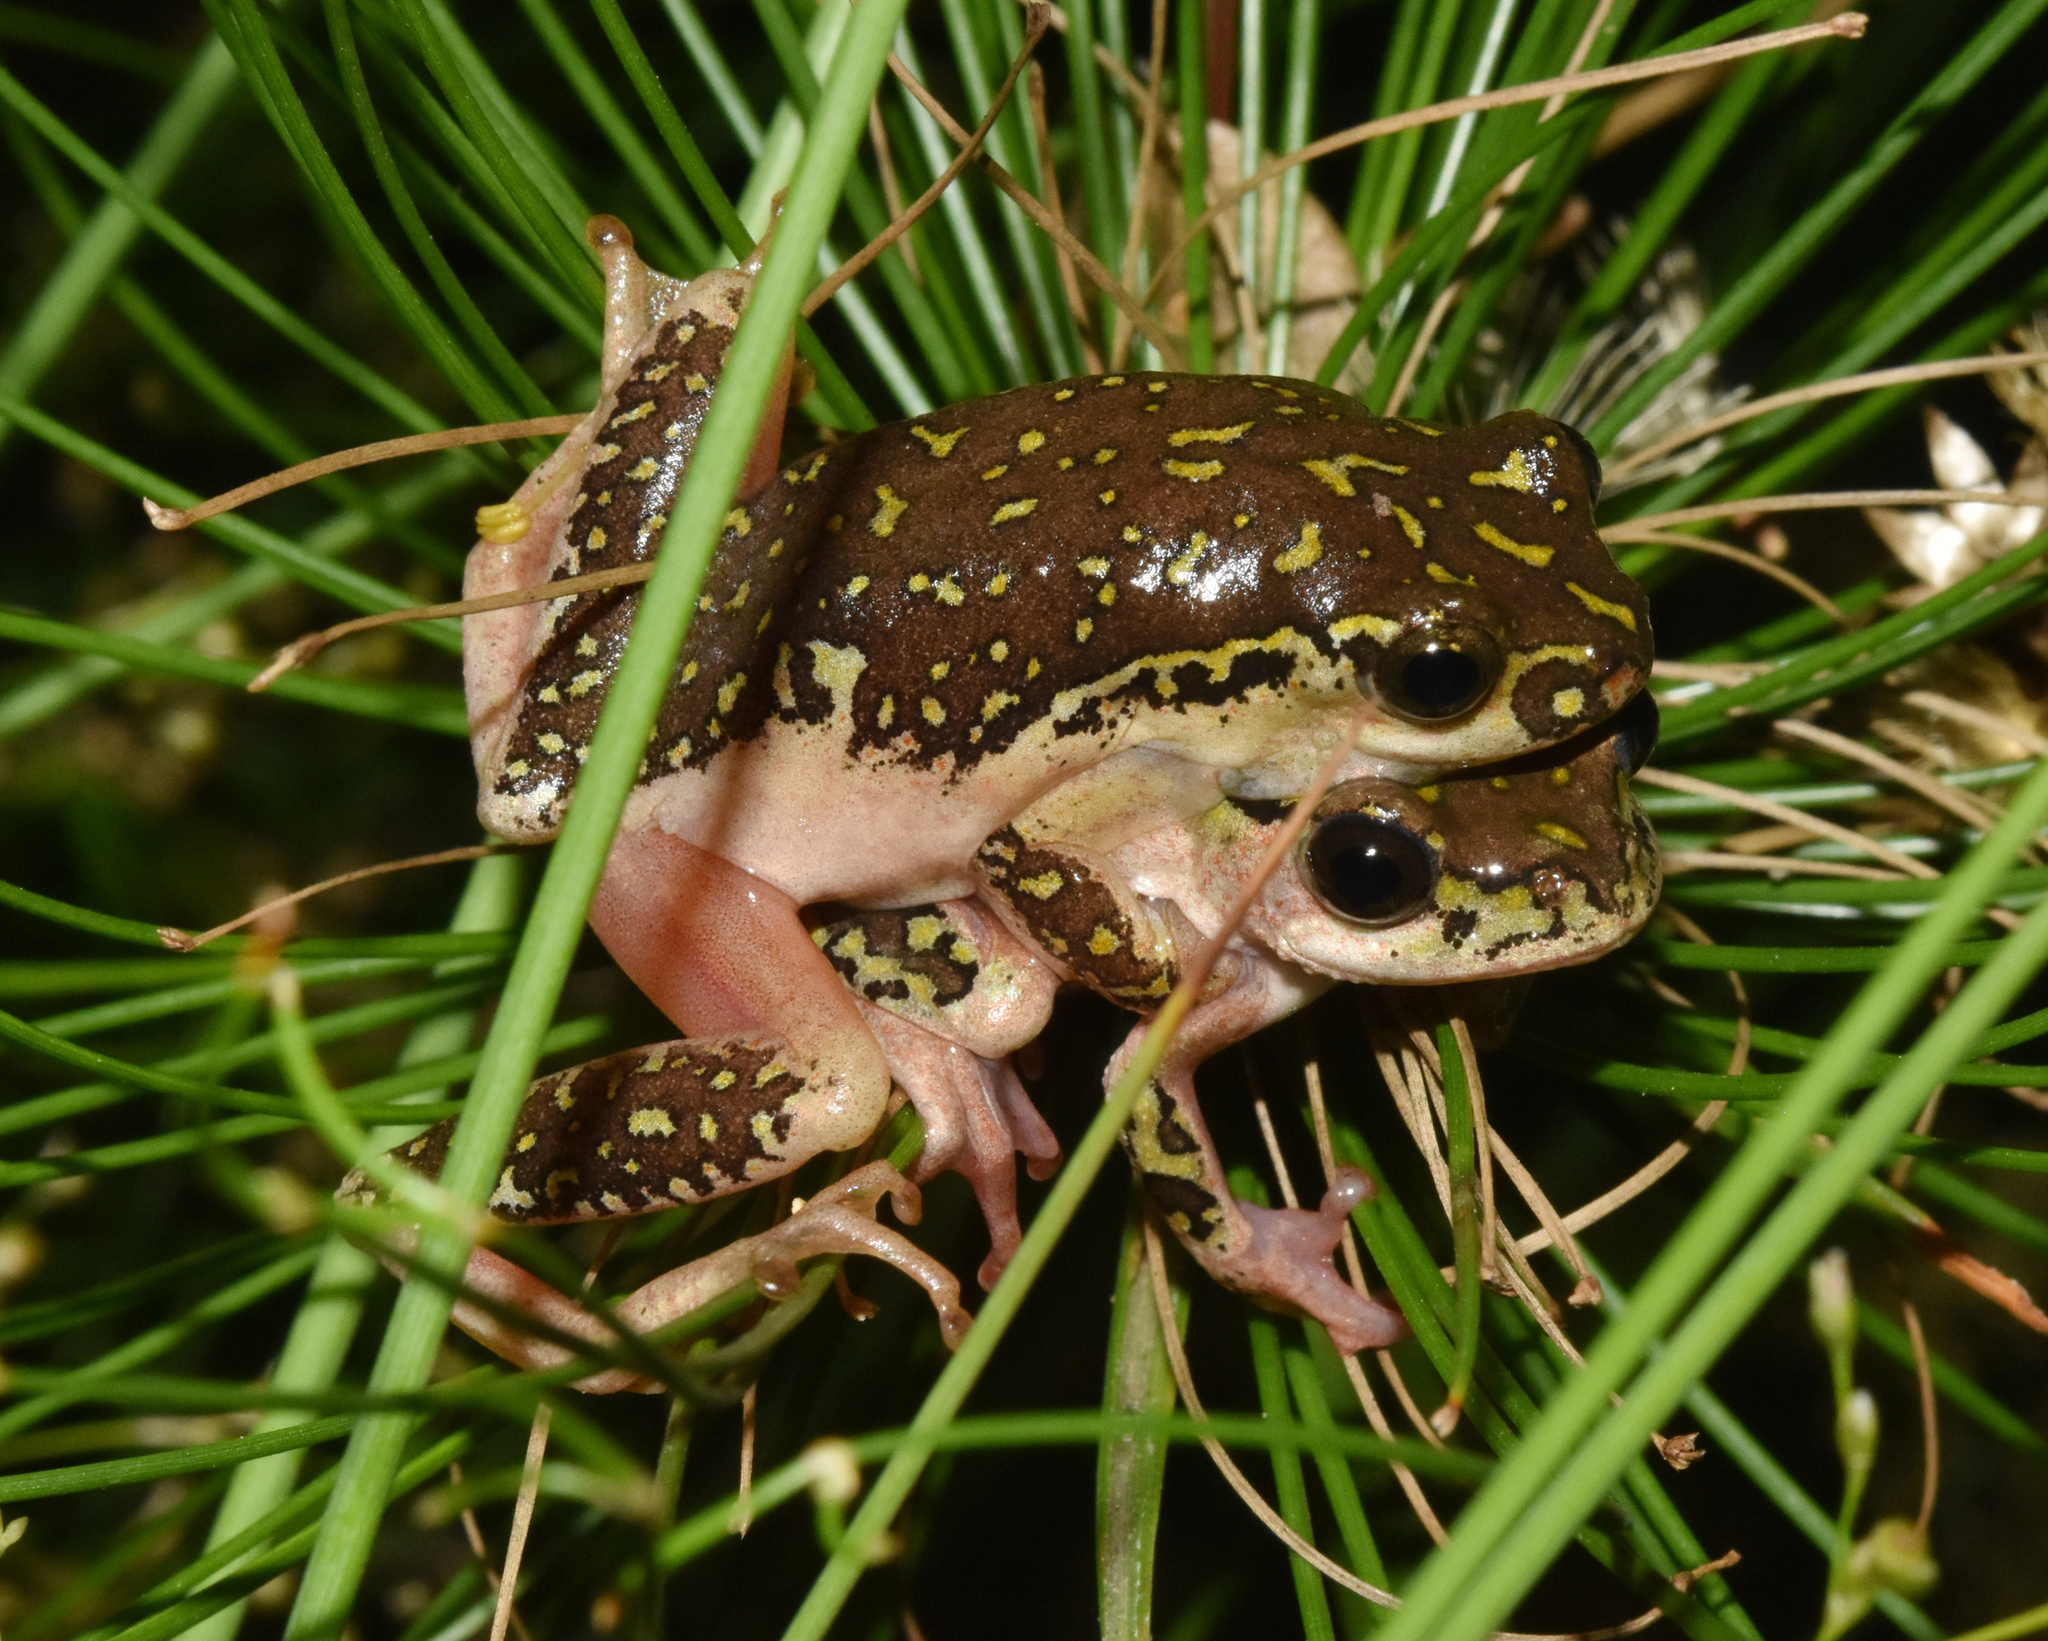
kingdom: Animalia
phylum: Chordata
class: Amphibia
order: Anura
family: Hyperoliidae
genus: Hyperolius
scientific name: Hyperolius marmoratus
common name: Painted reed frog
